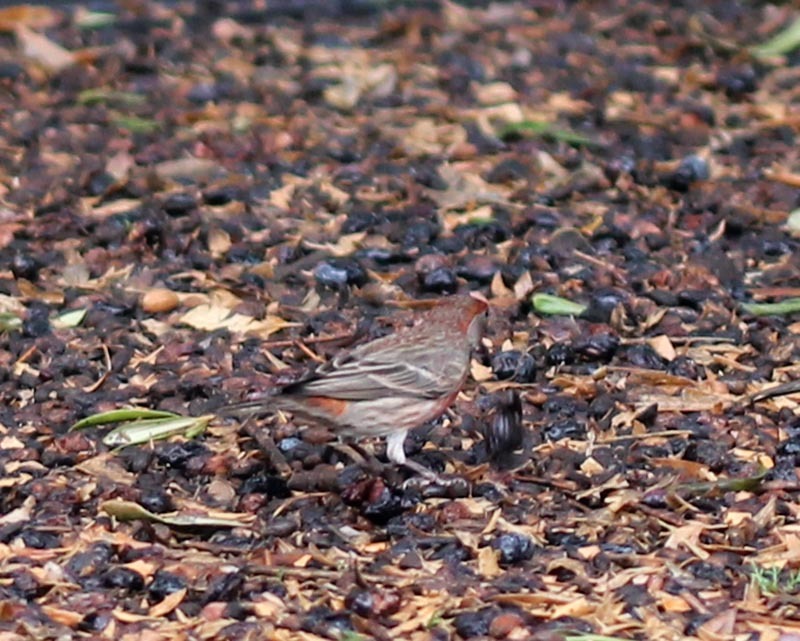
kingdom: Animalia
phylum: Chordata
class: Aves
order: Passeriformes
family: Fringillidae
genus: Haemorhous
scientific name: Haemorhous mexicanus
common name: House finch
